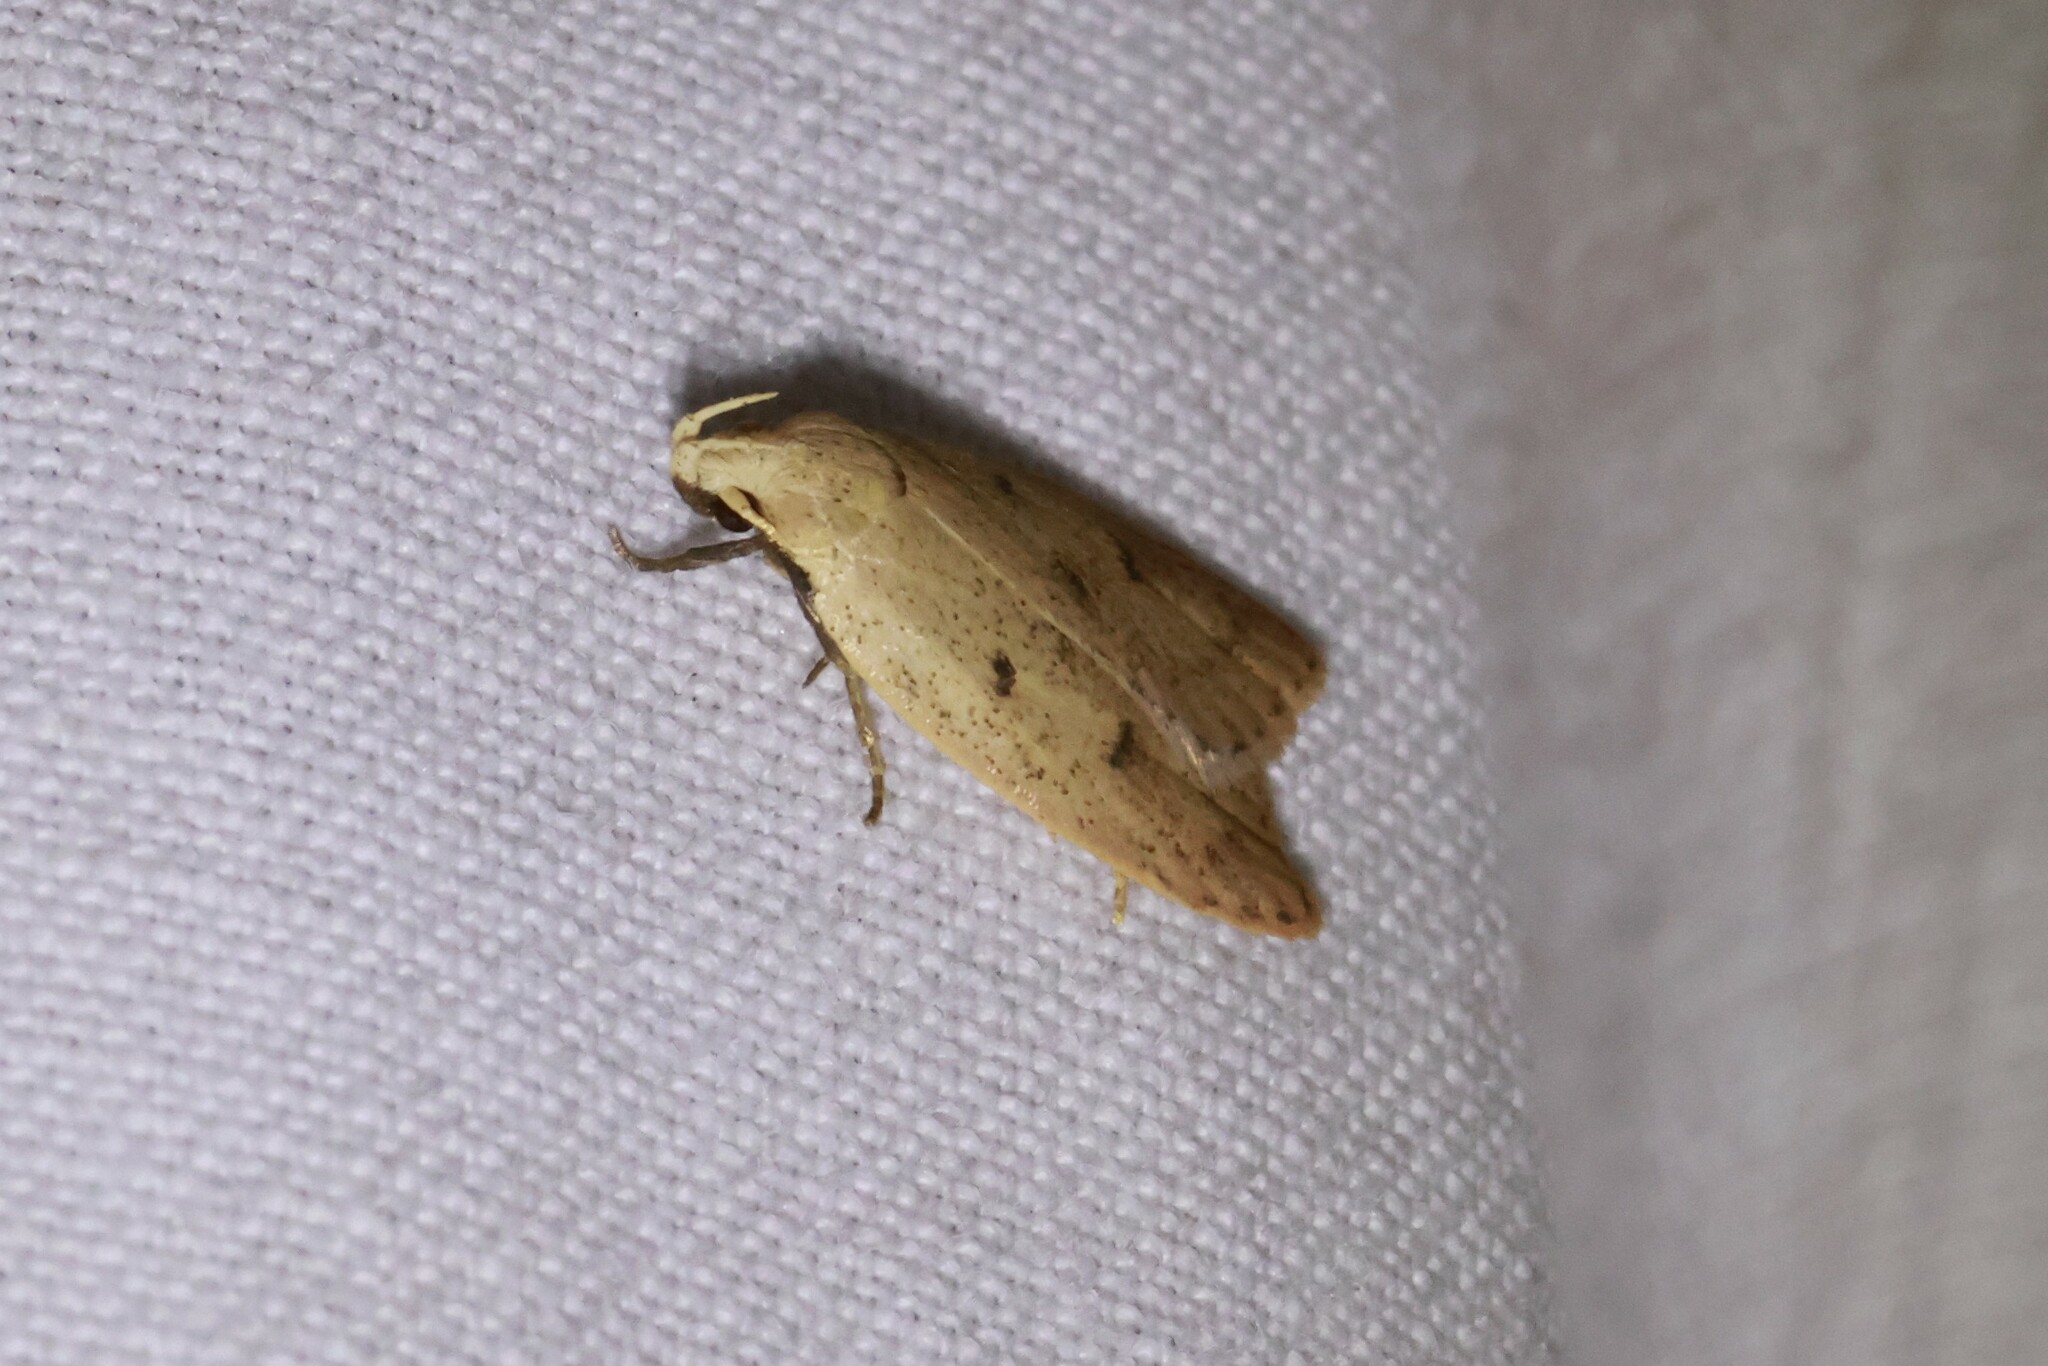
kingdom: Animalia
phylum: Arthropoda
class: Insecta
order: Lepidoptera
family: Peleopodidae
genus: Machimia
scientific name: Machimia tentoriferella
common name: Gold-striped leaftier moth
